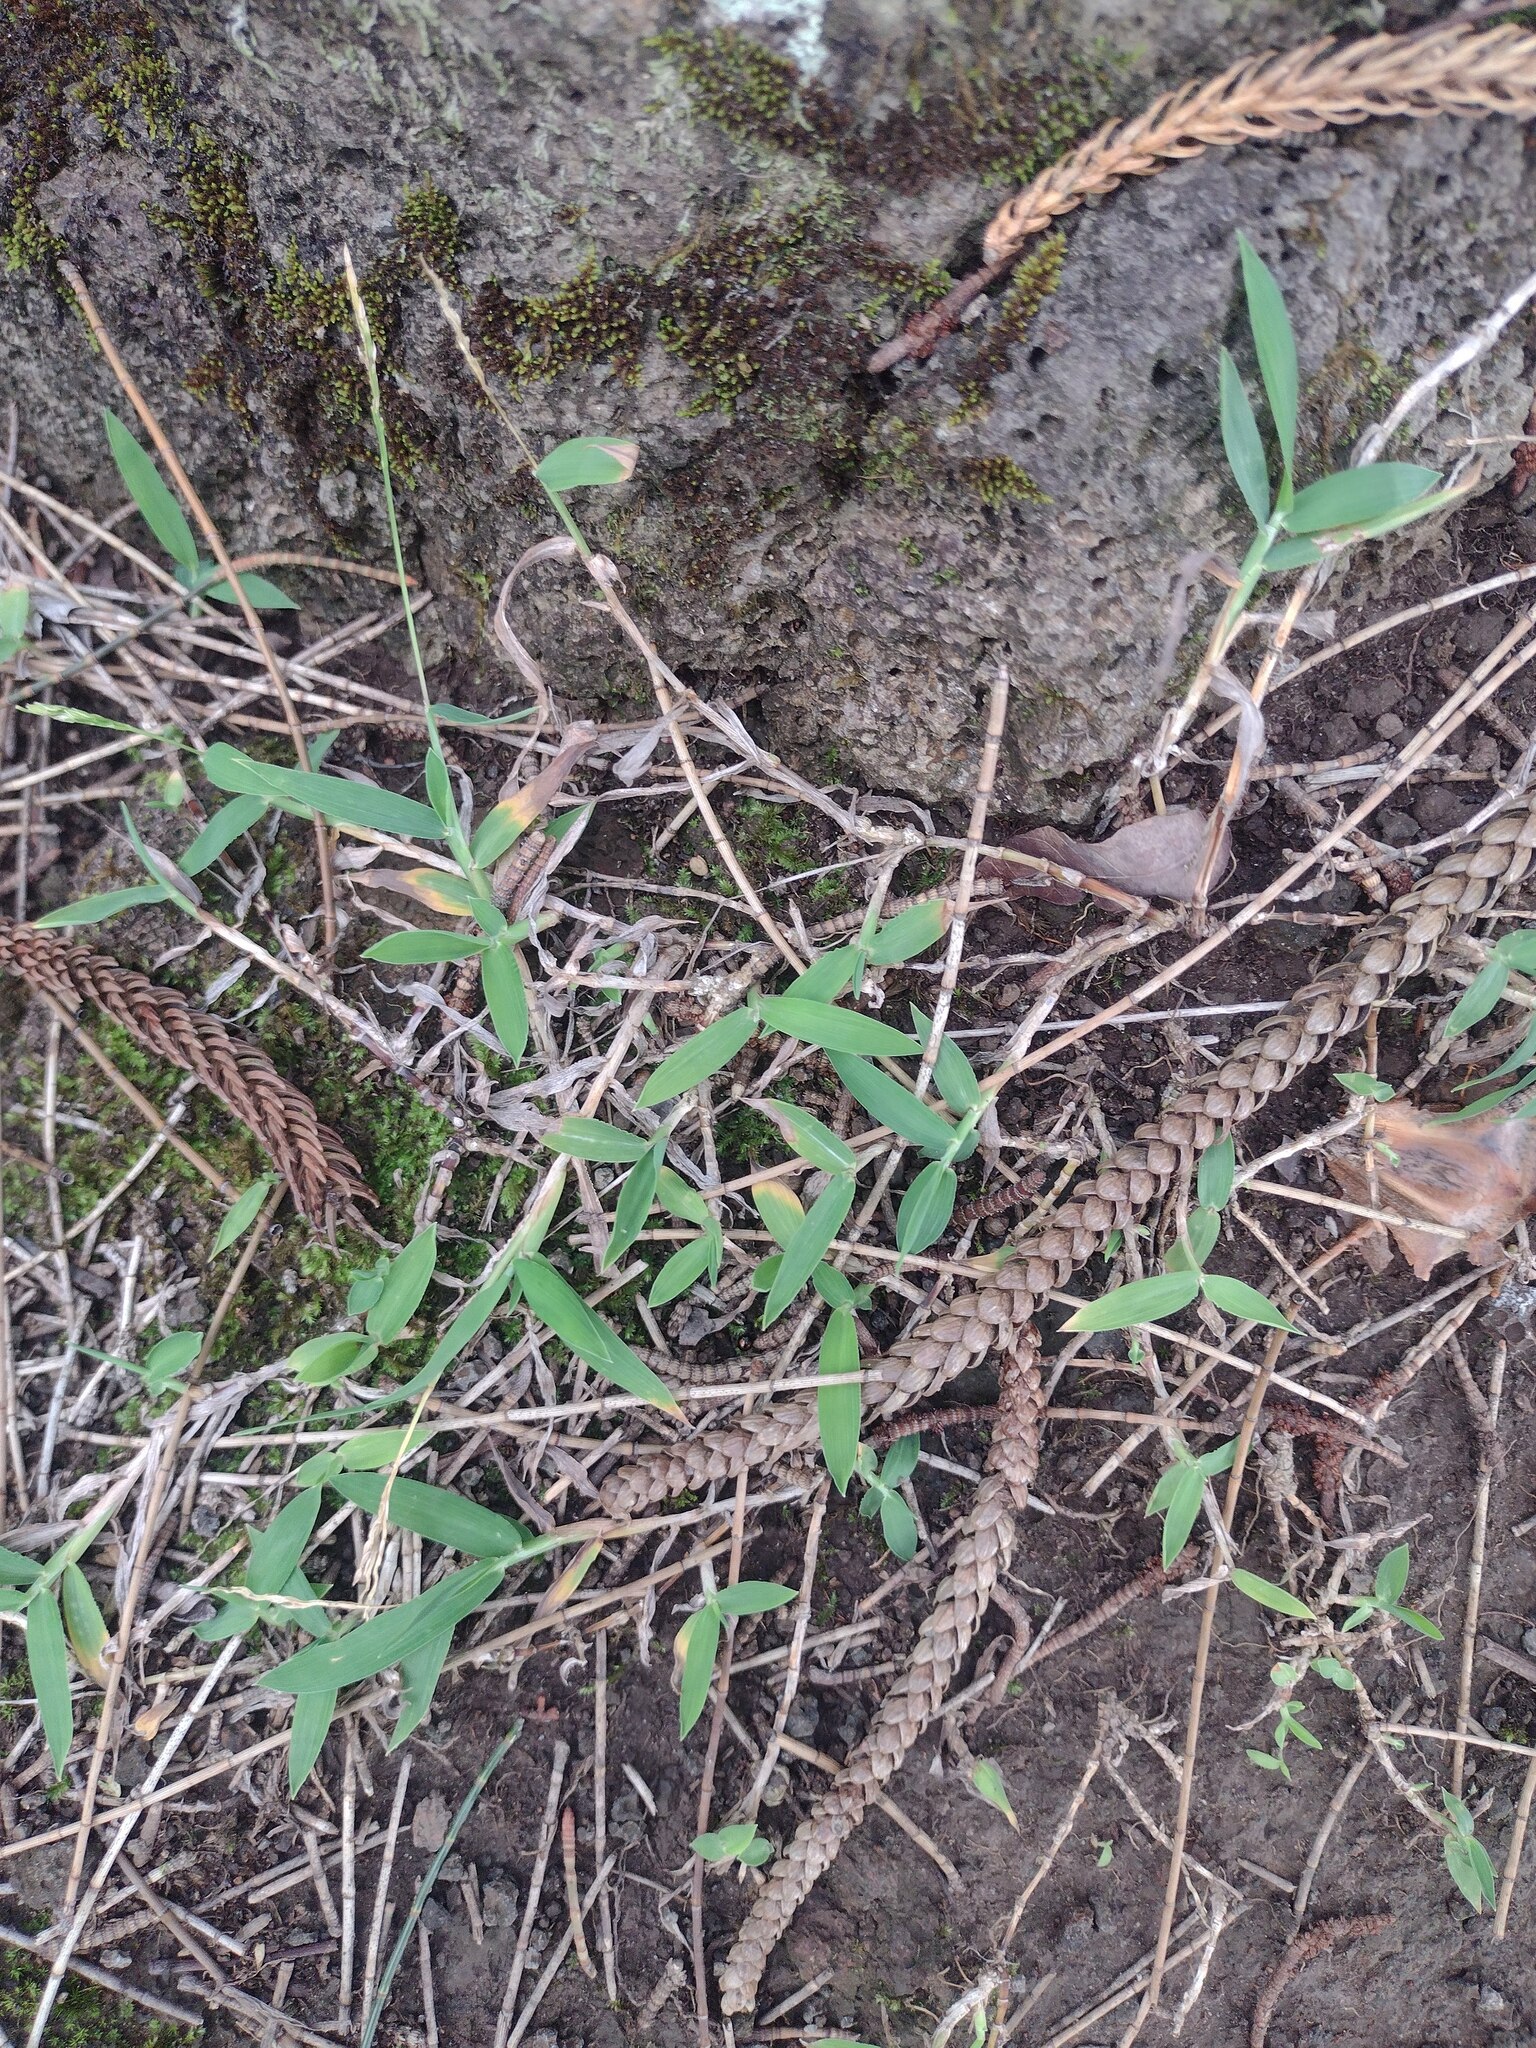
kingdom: Plantae
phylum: Tracheophyta
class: Liliopsida
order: Poales
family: Poaceae
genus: Digitaria
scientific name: Digitaria ciliaris
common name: Tropical finger-grass
